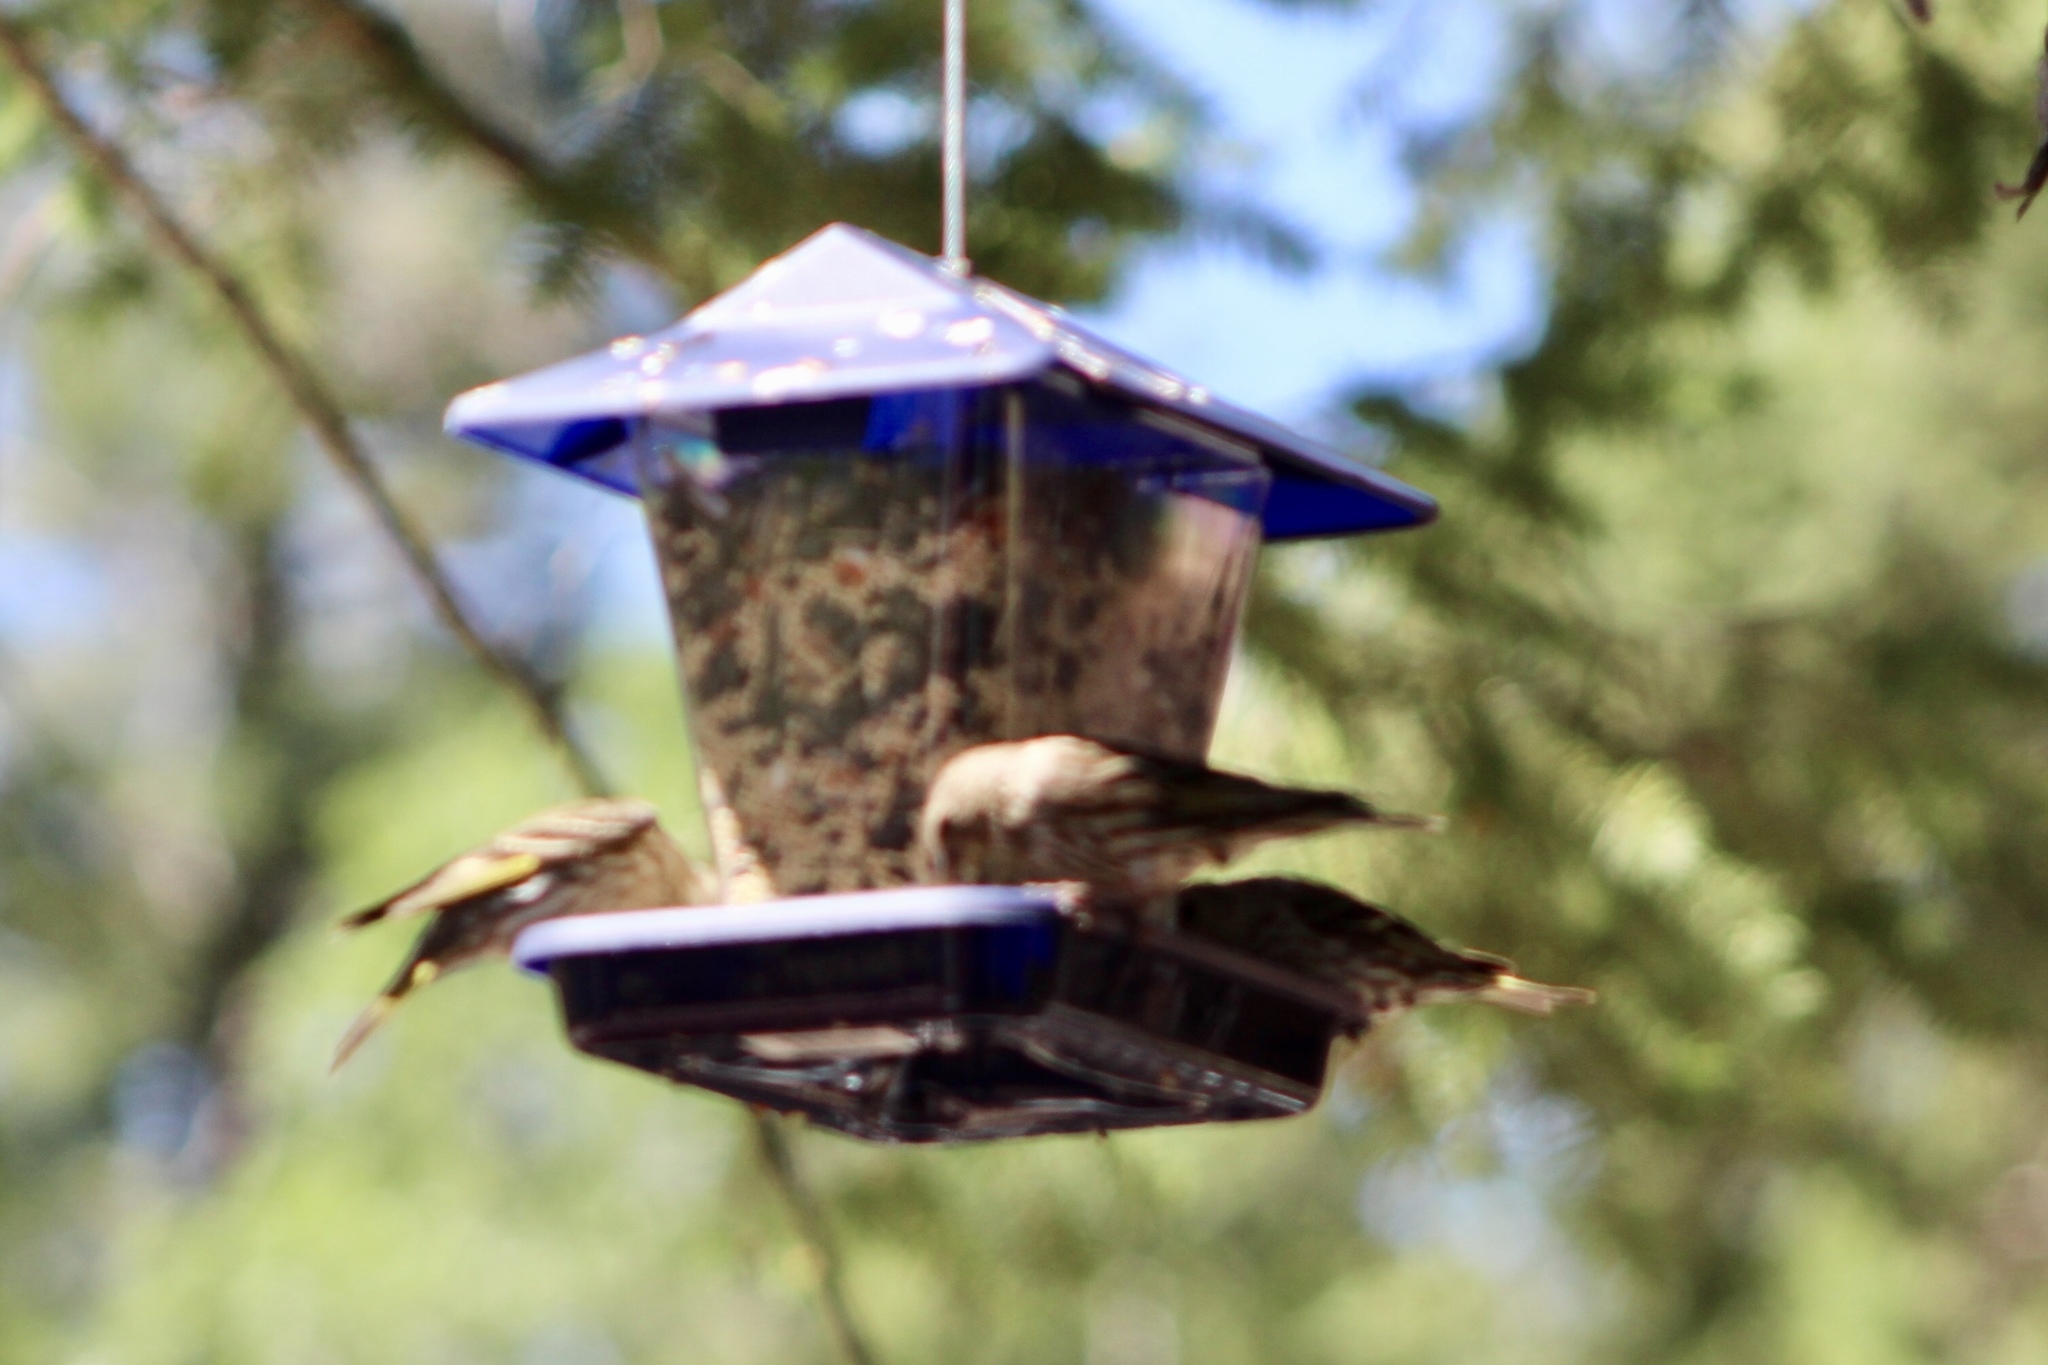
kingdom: Animalia
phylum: Chordata
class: Aves
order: Passeriformes
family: Fringillidae
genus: Spinus
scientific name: Spinus pinus
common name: Pine siskin
